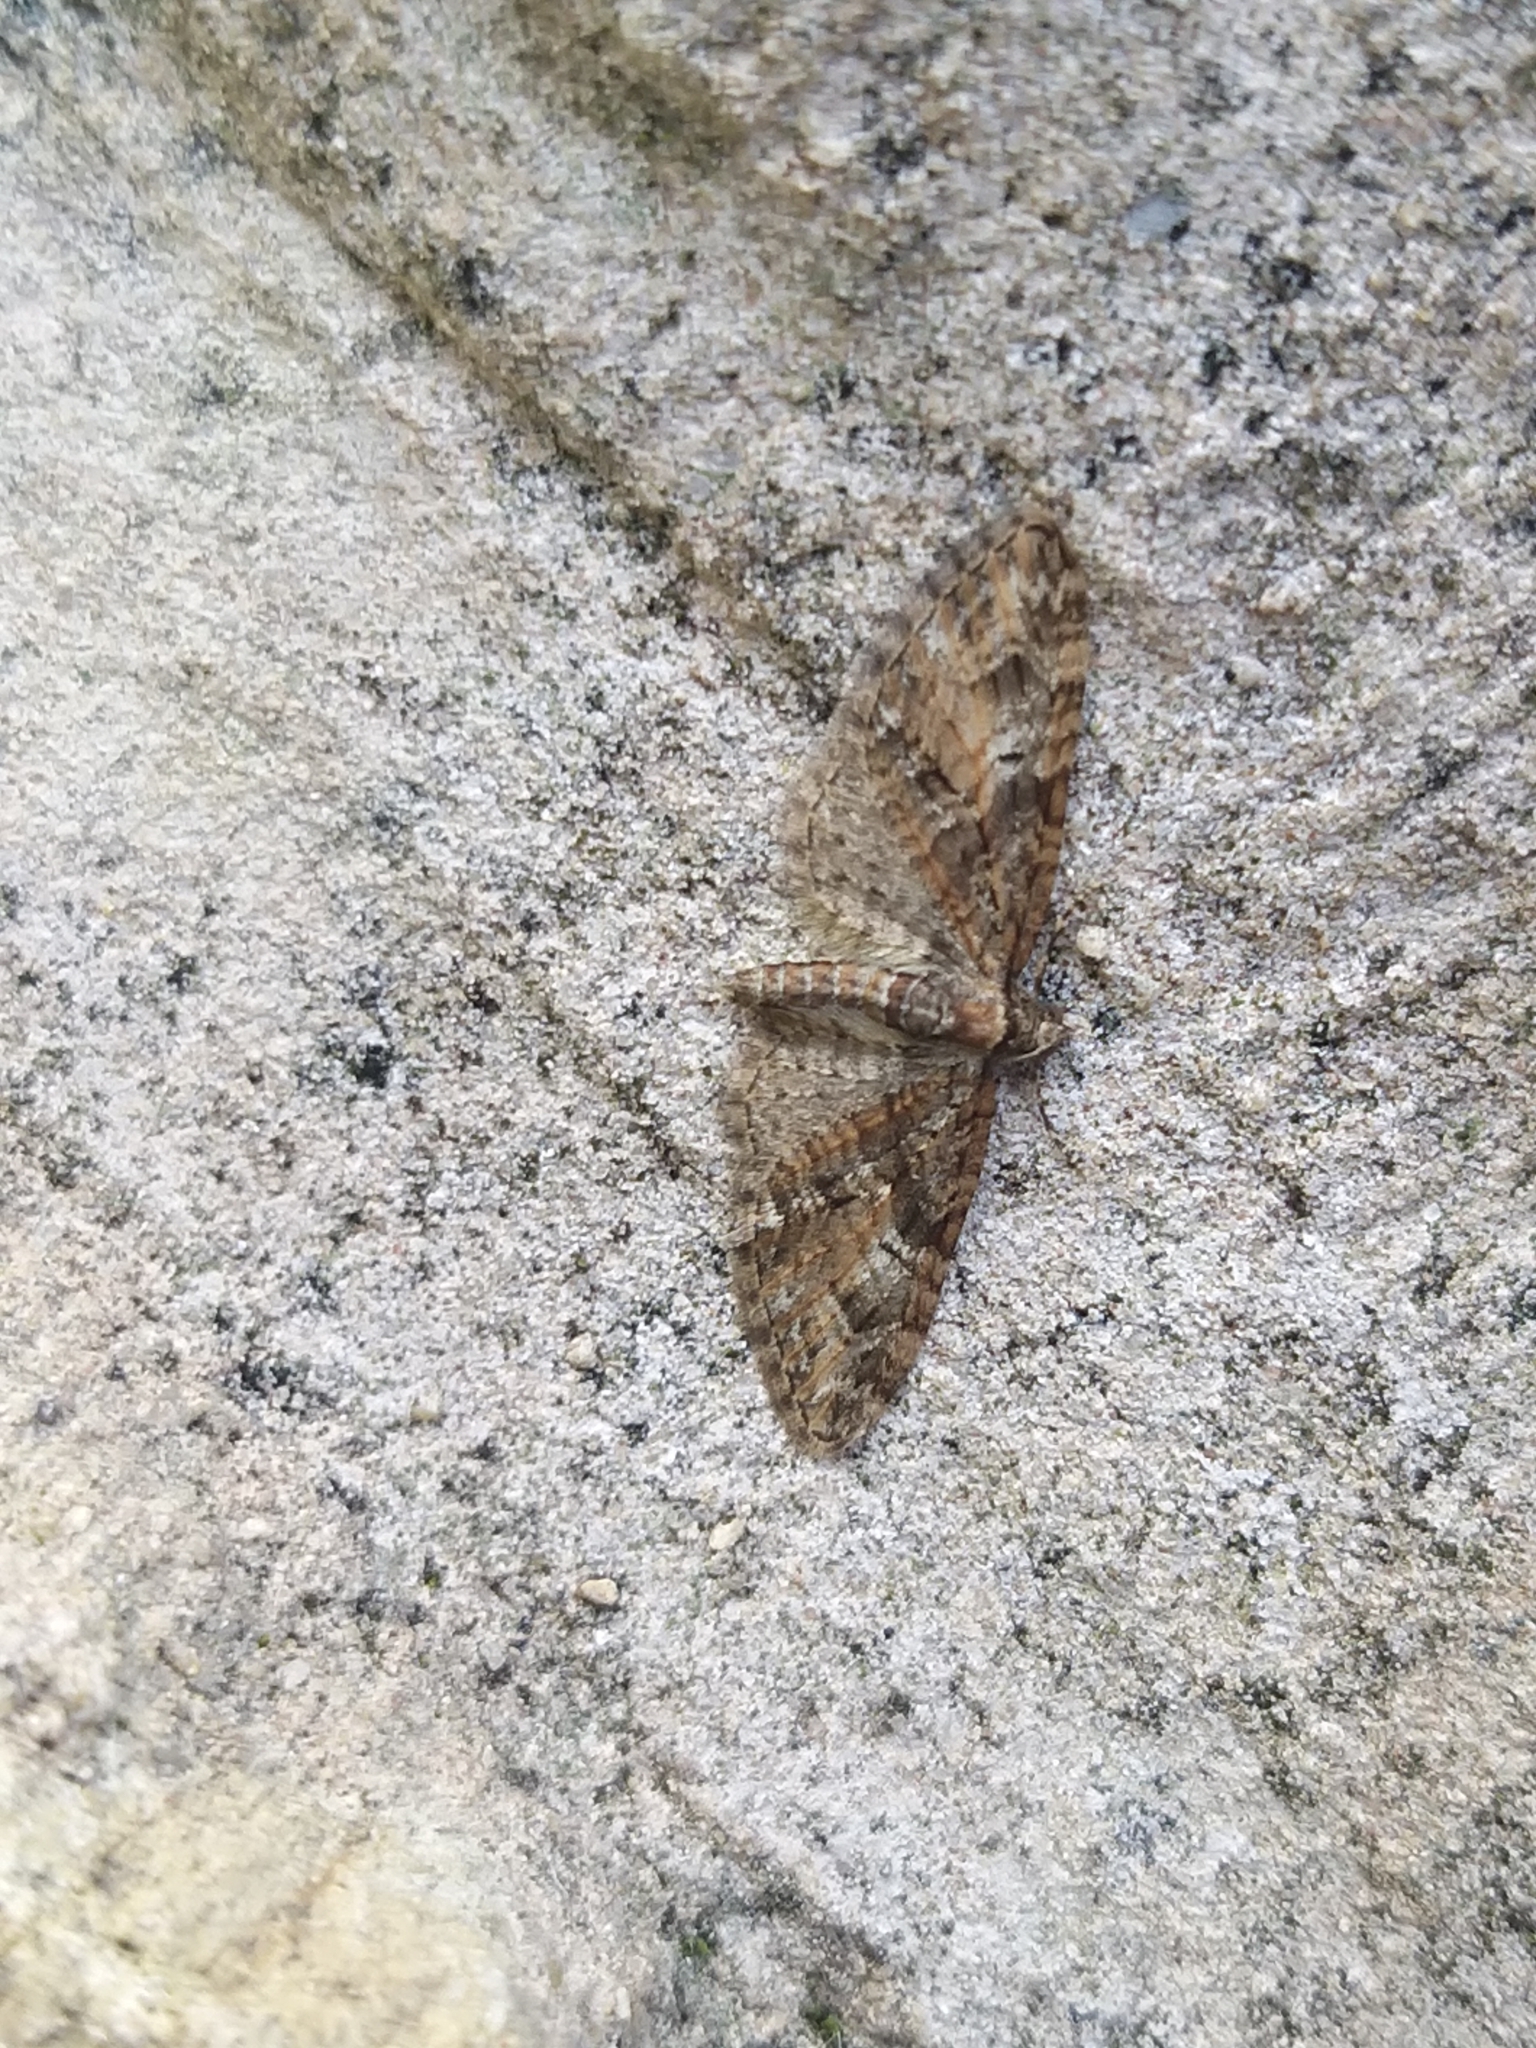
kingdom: Animalia
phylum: Arthropoda
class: Insecta
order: Lepidoptera
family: Geometridae
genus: Eupithecia
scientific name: Eupithecia abbreviata
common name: Brindled pug
